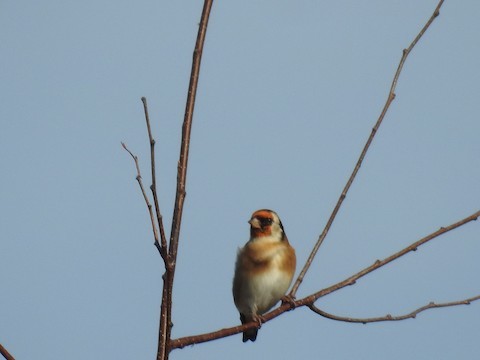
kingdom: Animalia
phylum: Chordata
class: Aves
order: Passeriformes
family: Fringillidae
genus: Carduelis
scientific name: Carduelis carduelis
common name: European goldfinch
